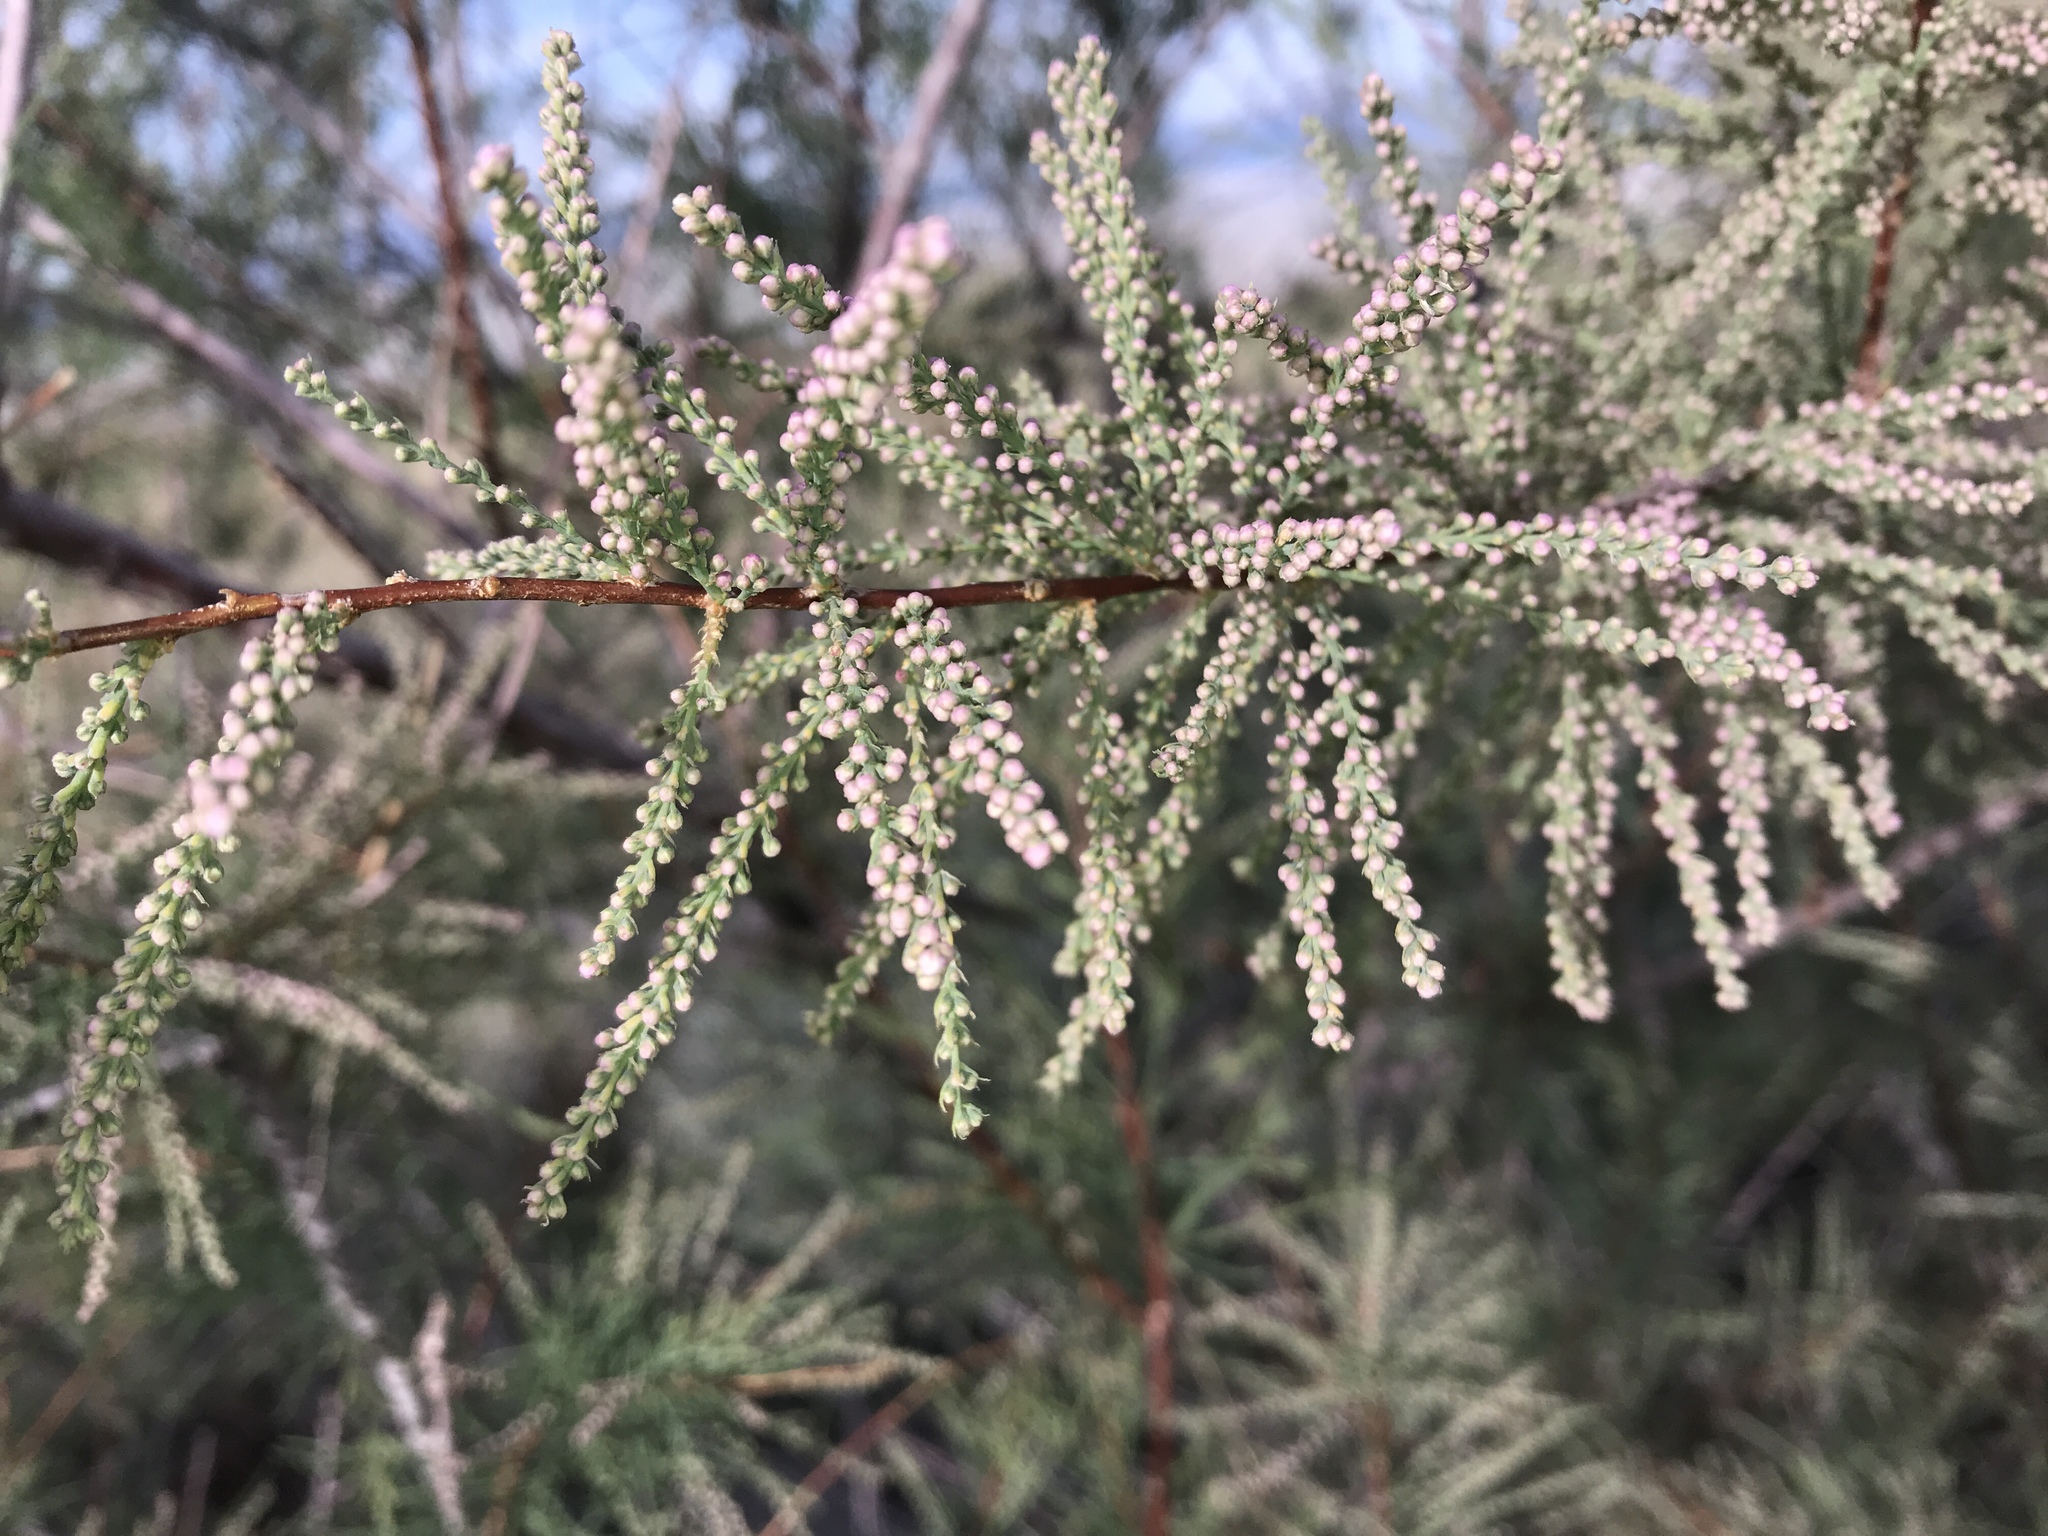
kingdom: Plantae
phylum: Tracheophyta
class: Magnoliopsida
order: Caryophyllales
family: Tamaricaceae
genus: Tamarix
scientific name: Tamarix
